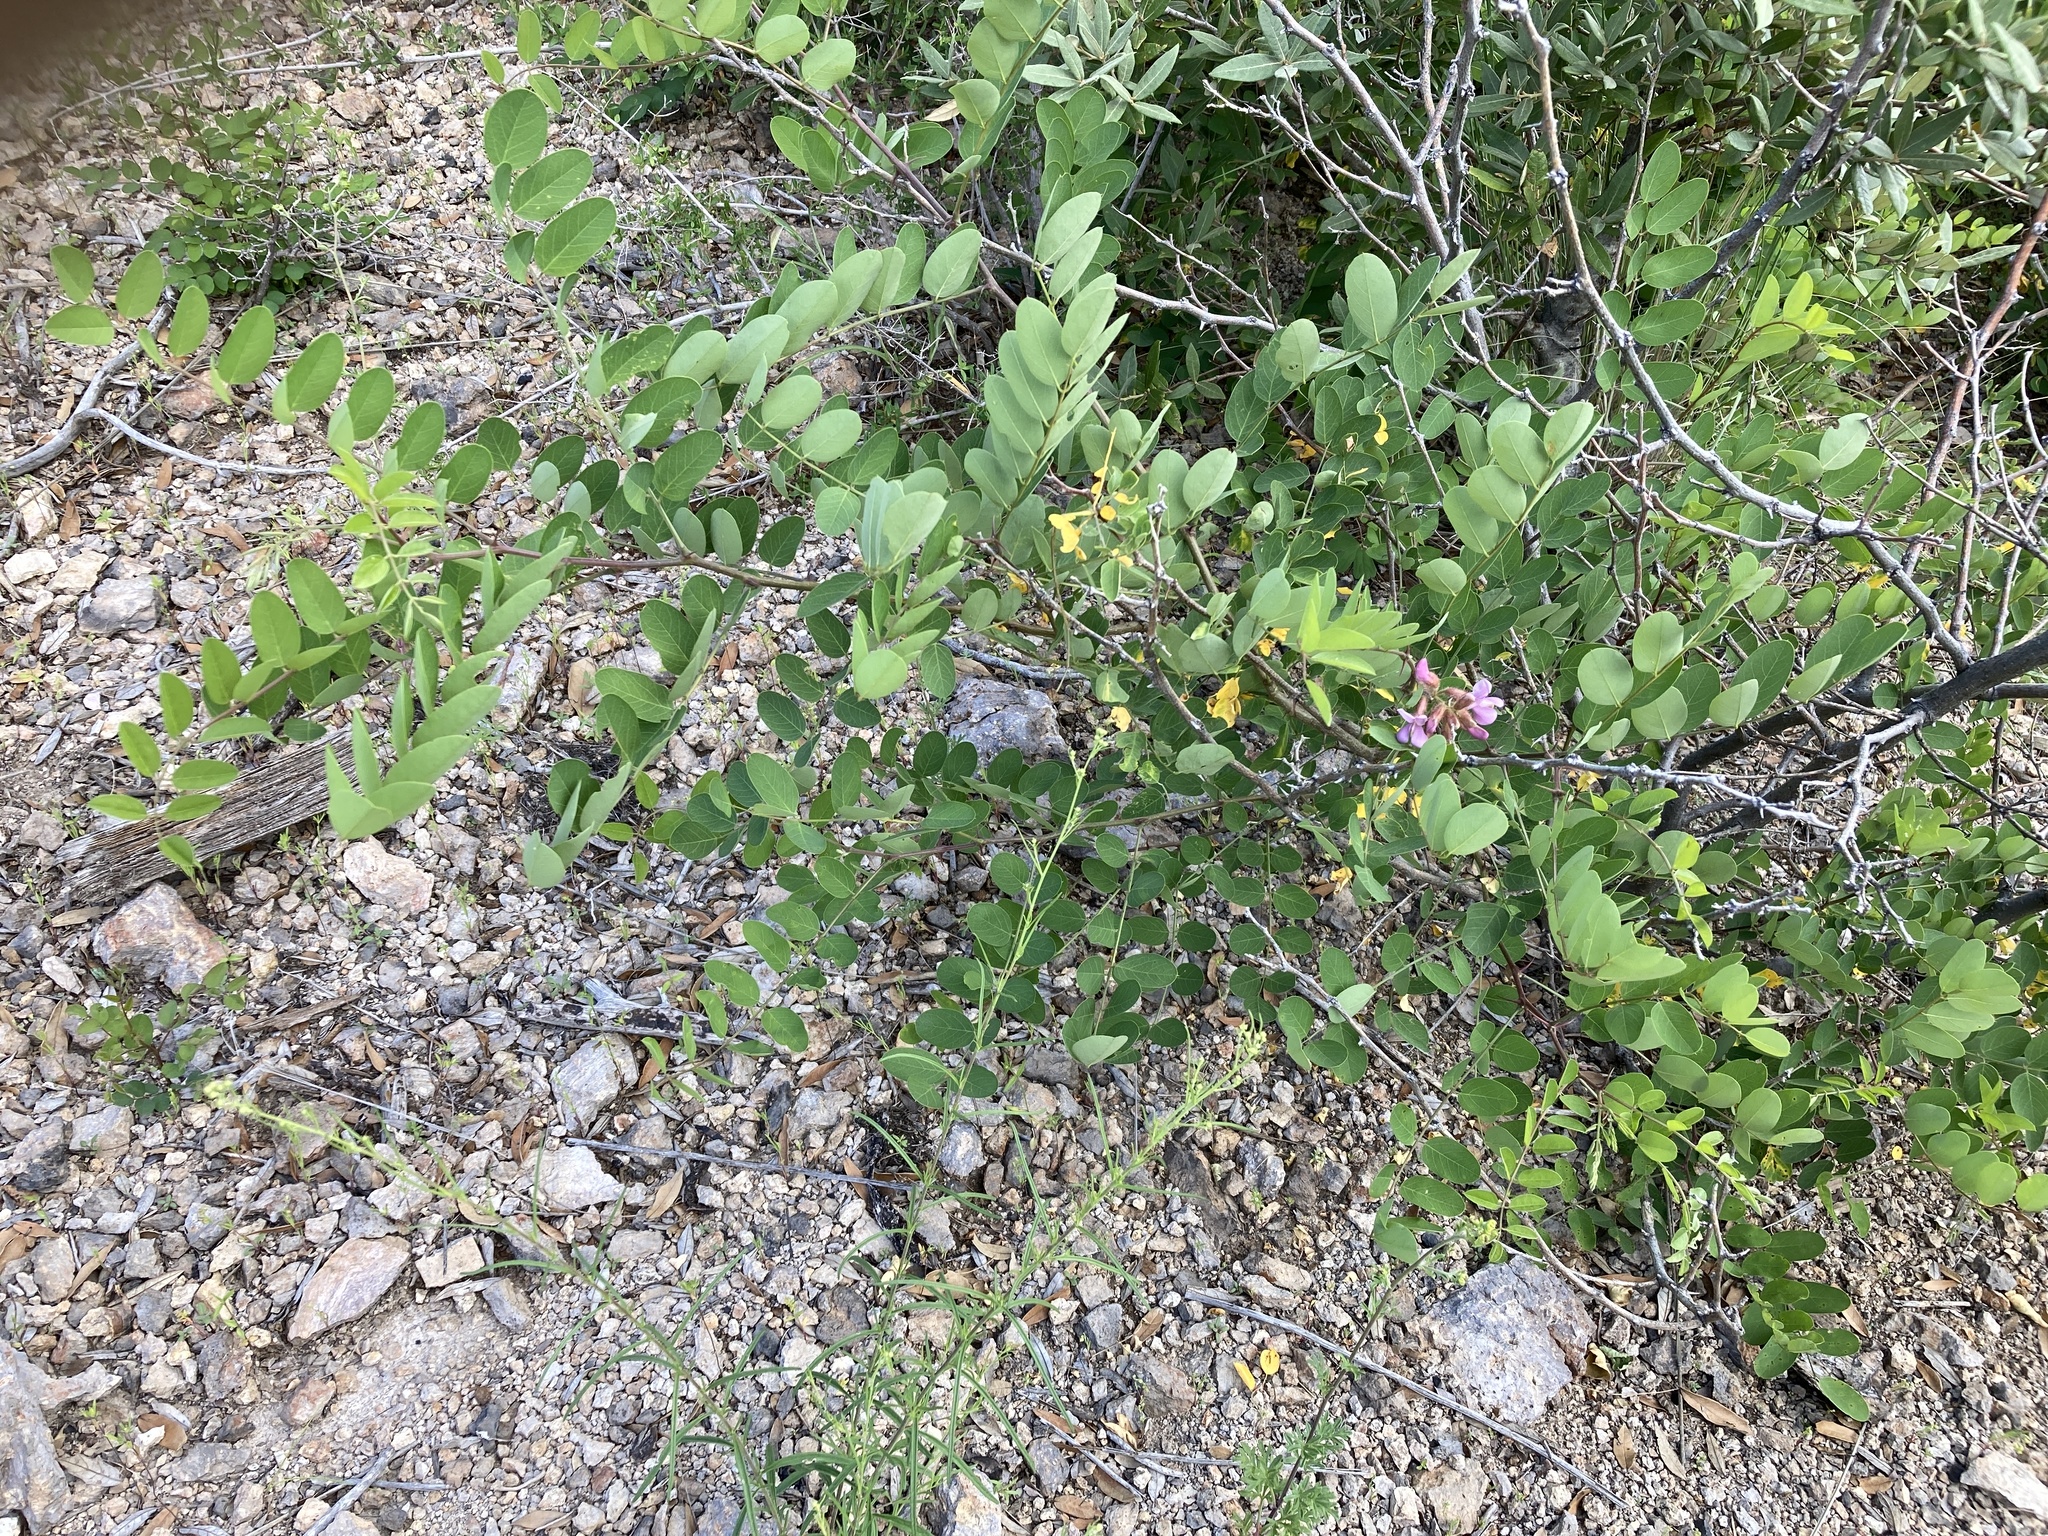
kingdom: Plantae
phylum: Tracheophyta
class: Magnoliopsida
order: Fabales
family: Fabaceae
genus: Robinia
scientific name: Robinia neomexicana
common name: New mexico locust
